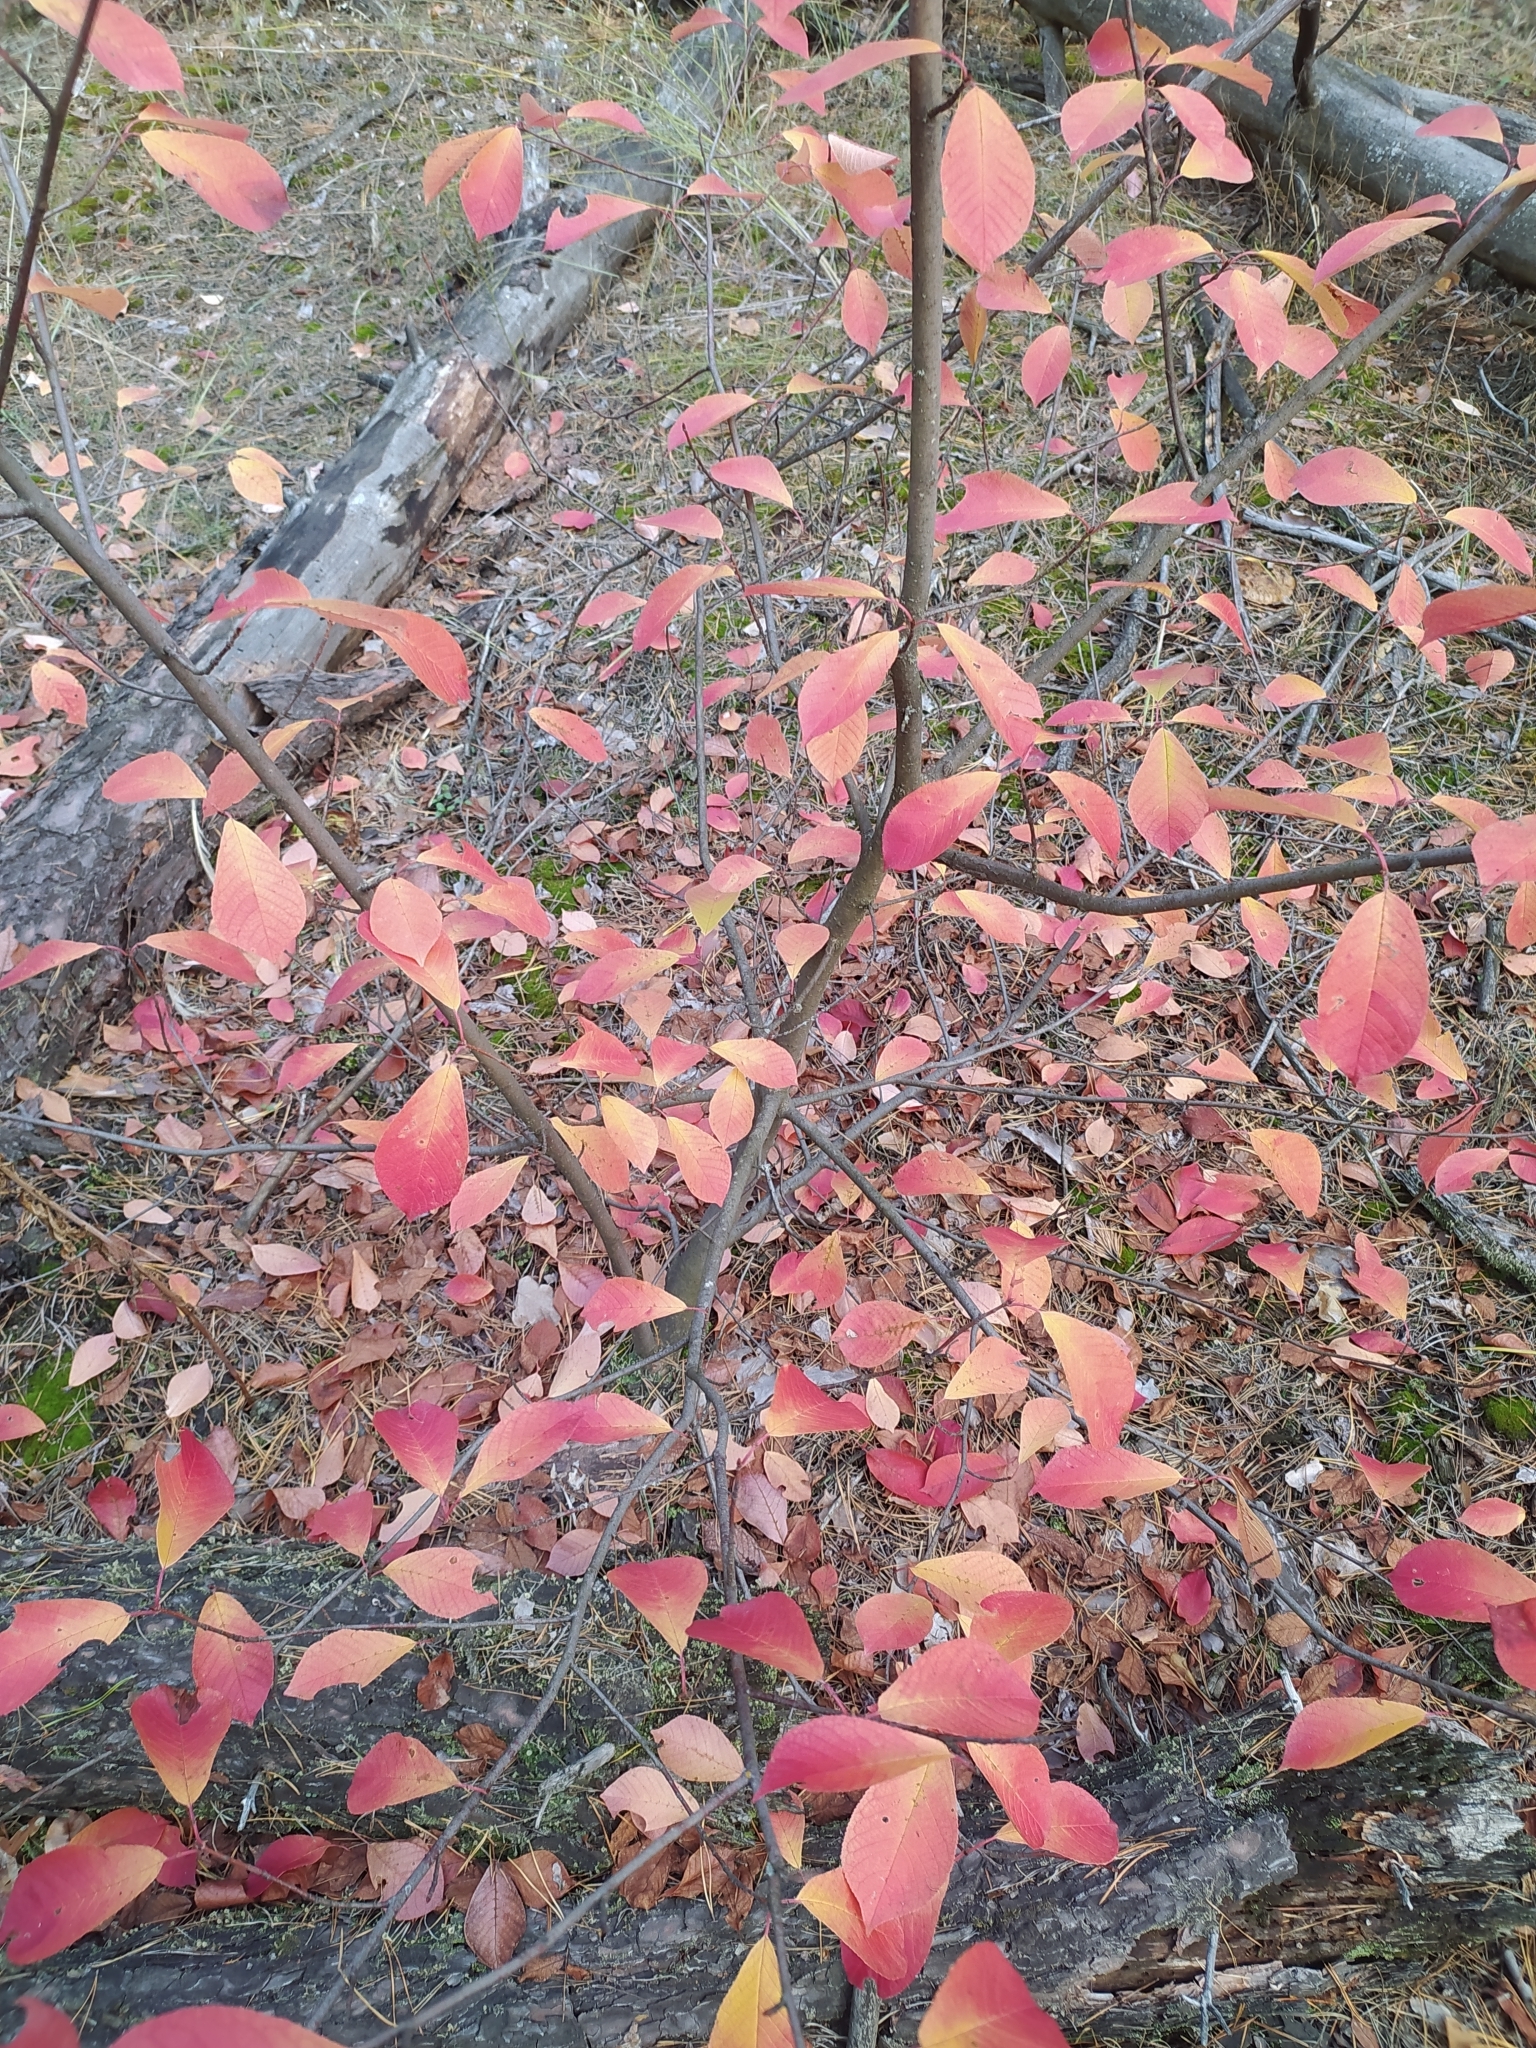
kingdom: Plantae
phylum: Tracheophyta
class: Magnoliopsida
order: Rosales
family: Rosaceae
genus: Prunus
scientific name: Prunus serotina
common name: Black cherry
